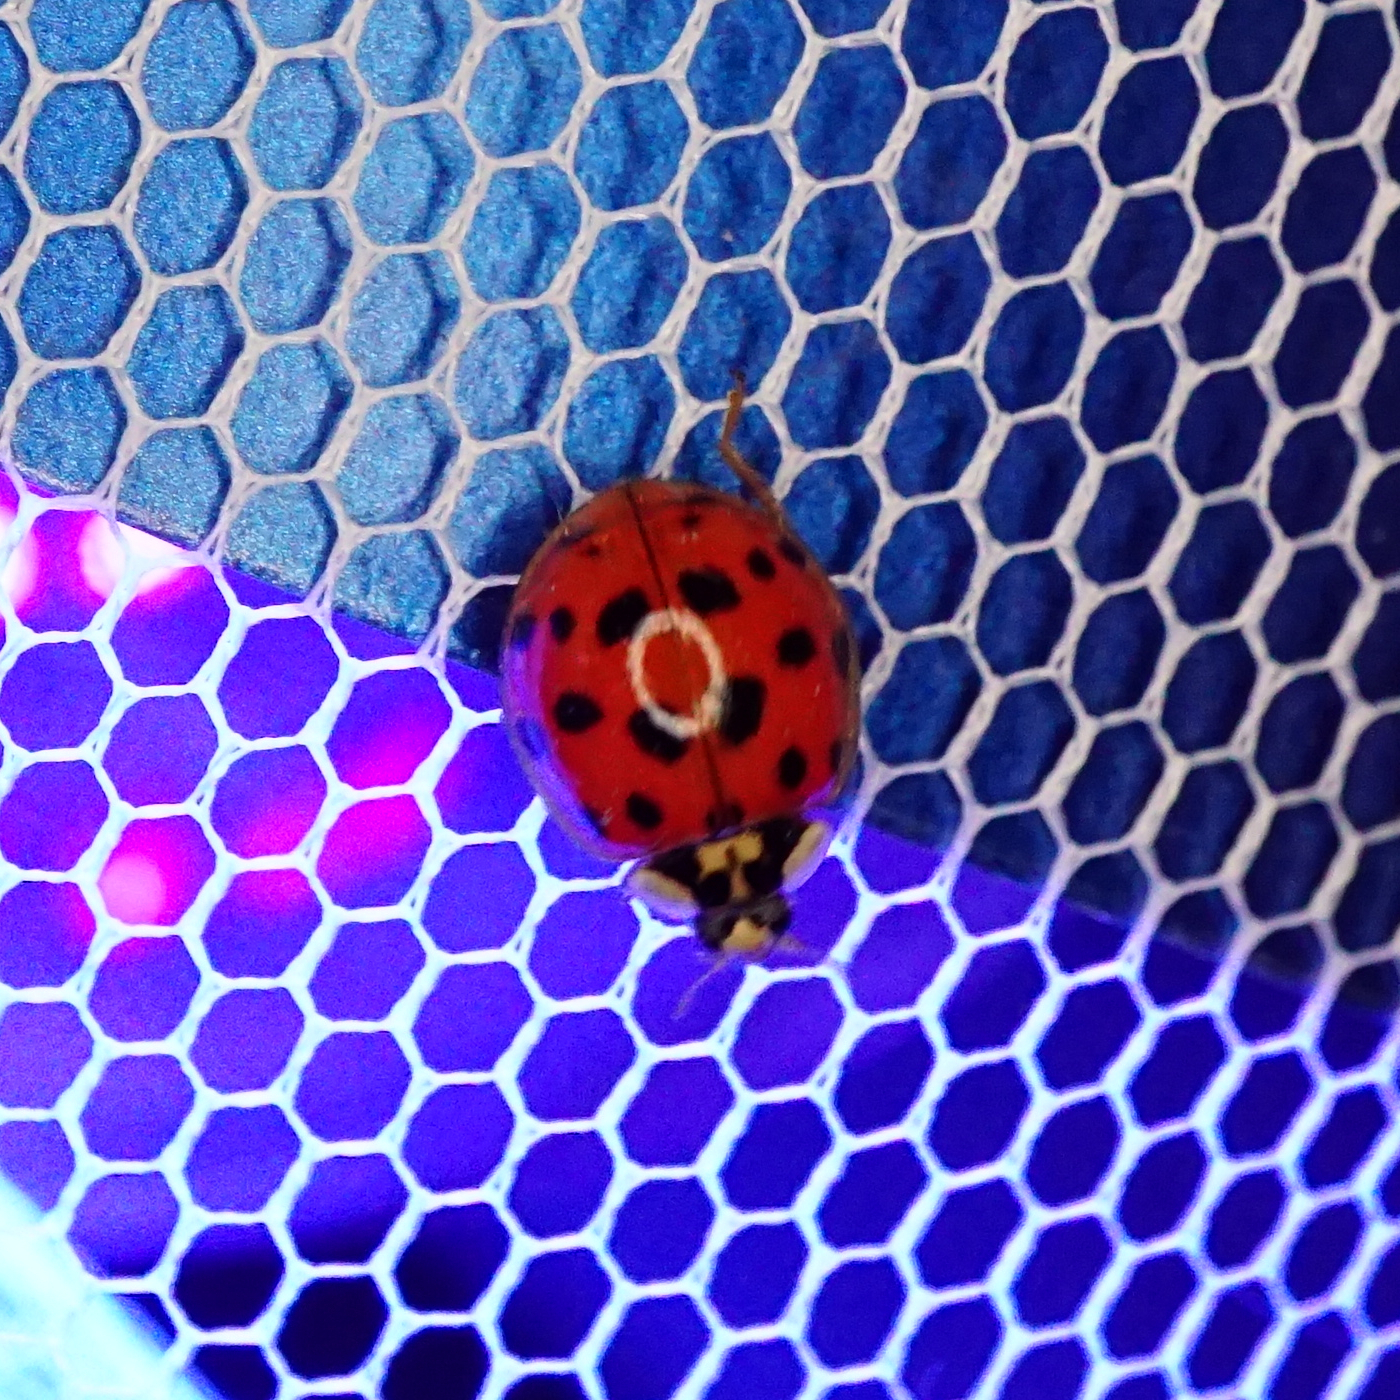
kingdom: Animalia
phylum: Arthropoda
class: Insecta
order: Coleoptera
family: Coccinellidae
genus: Harmonia
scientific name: Harmonia axyridis
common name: Harlequin ladybird
